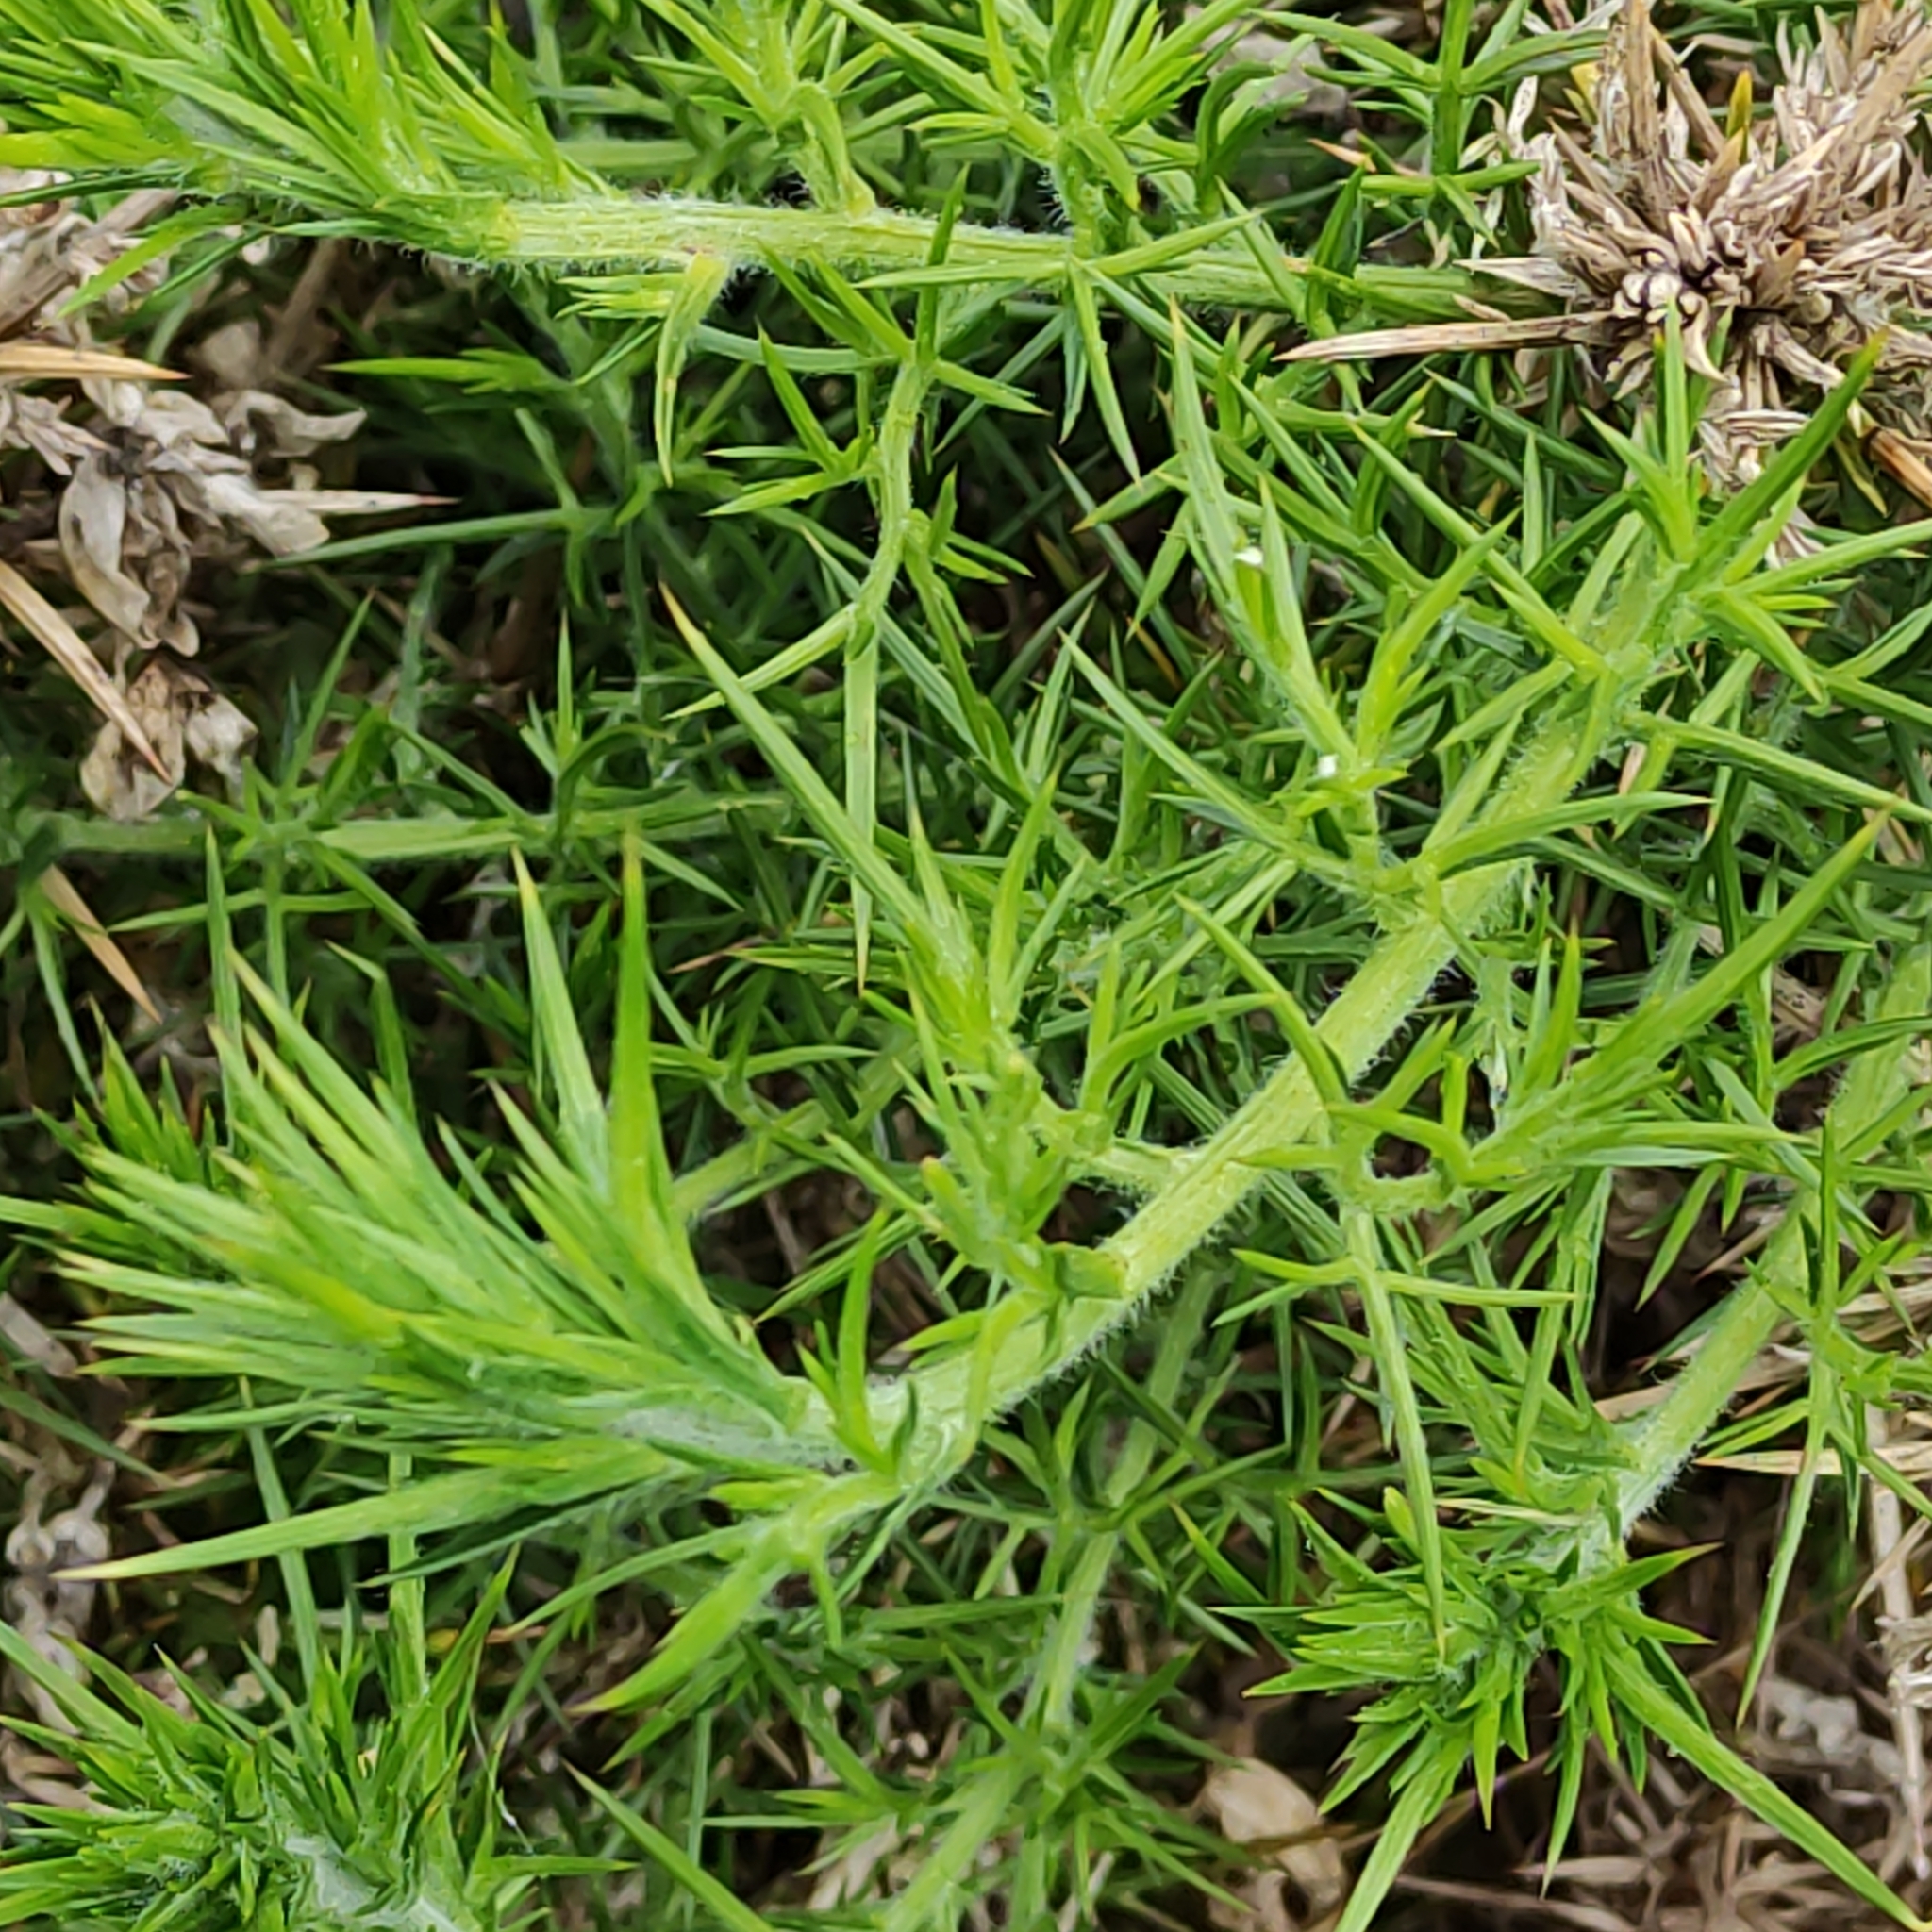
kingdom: Plantae
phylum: Tracheophyta
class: Magnoliopsida
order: Fabales
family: Fabaceae
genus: Ulex
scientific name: Ulex europaeus
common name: Common gorse
